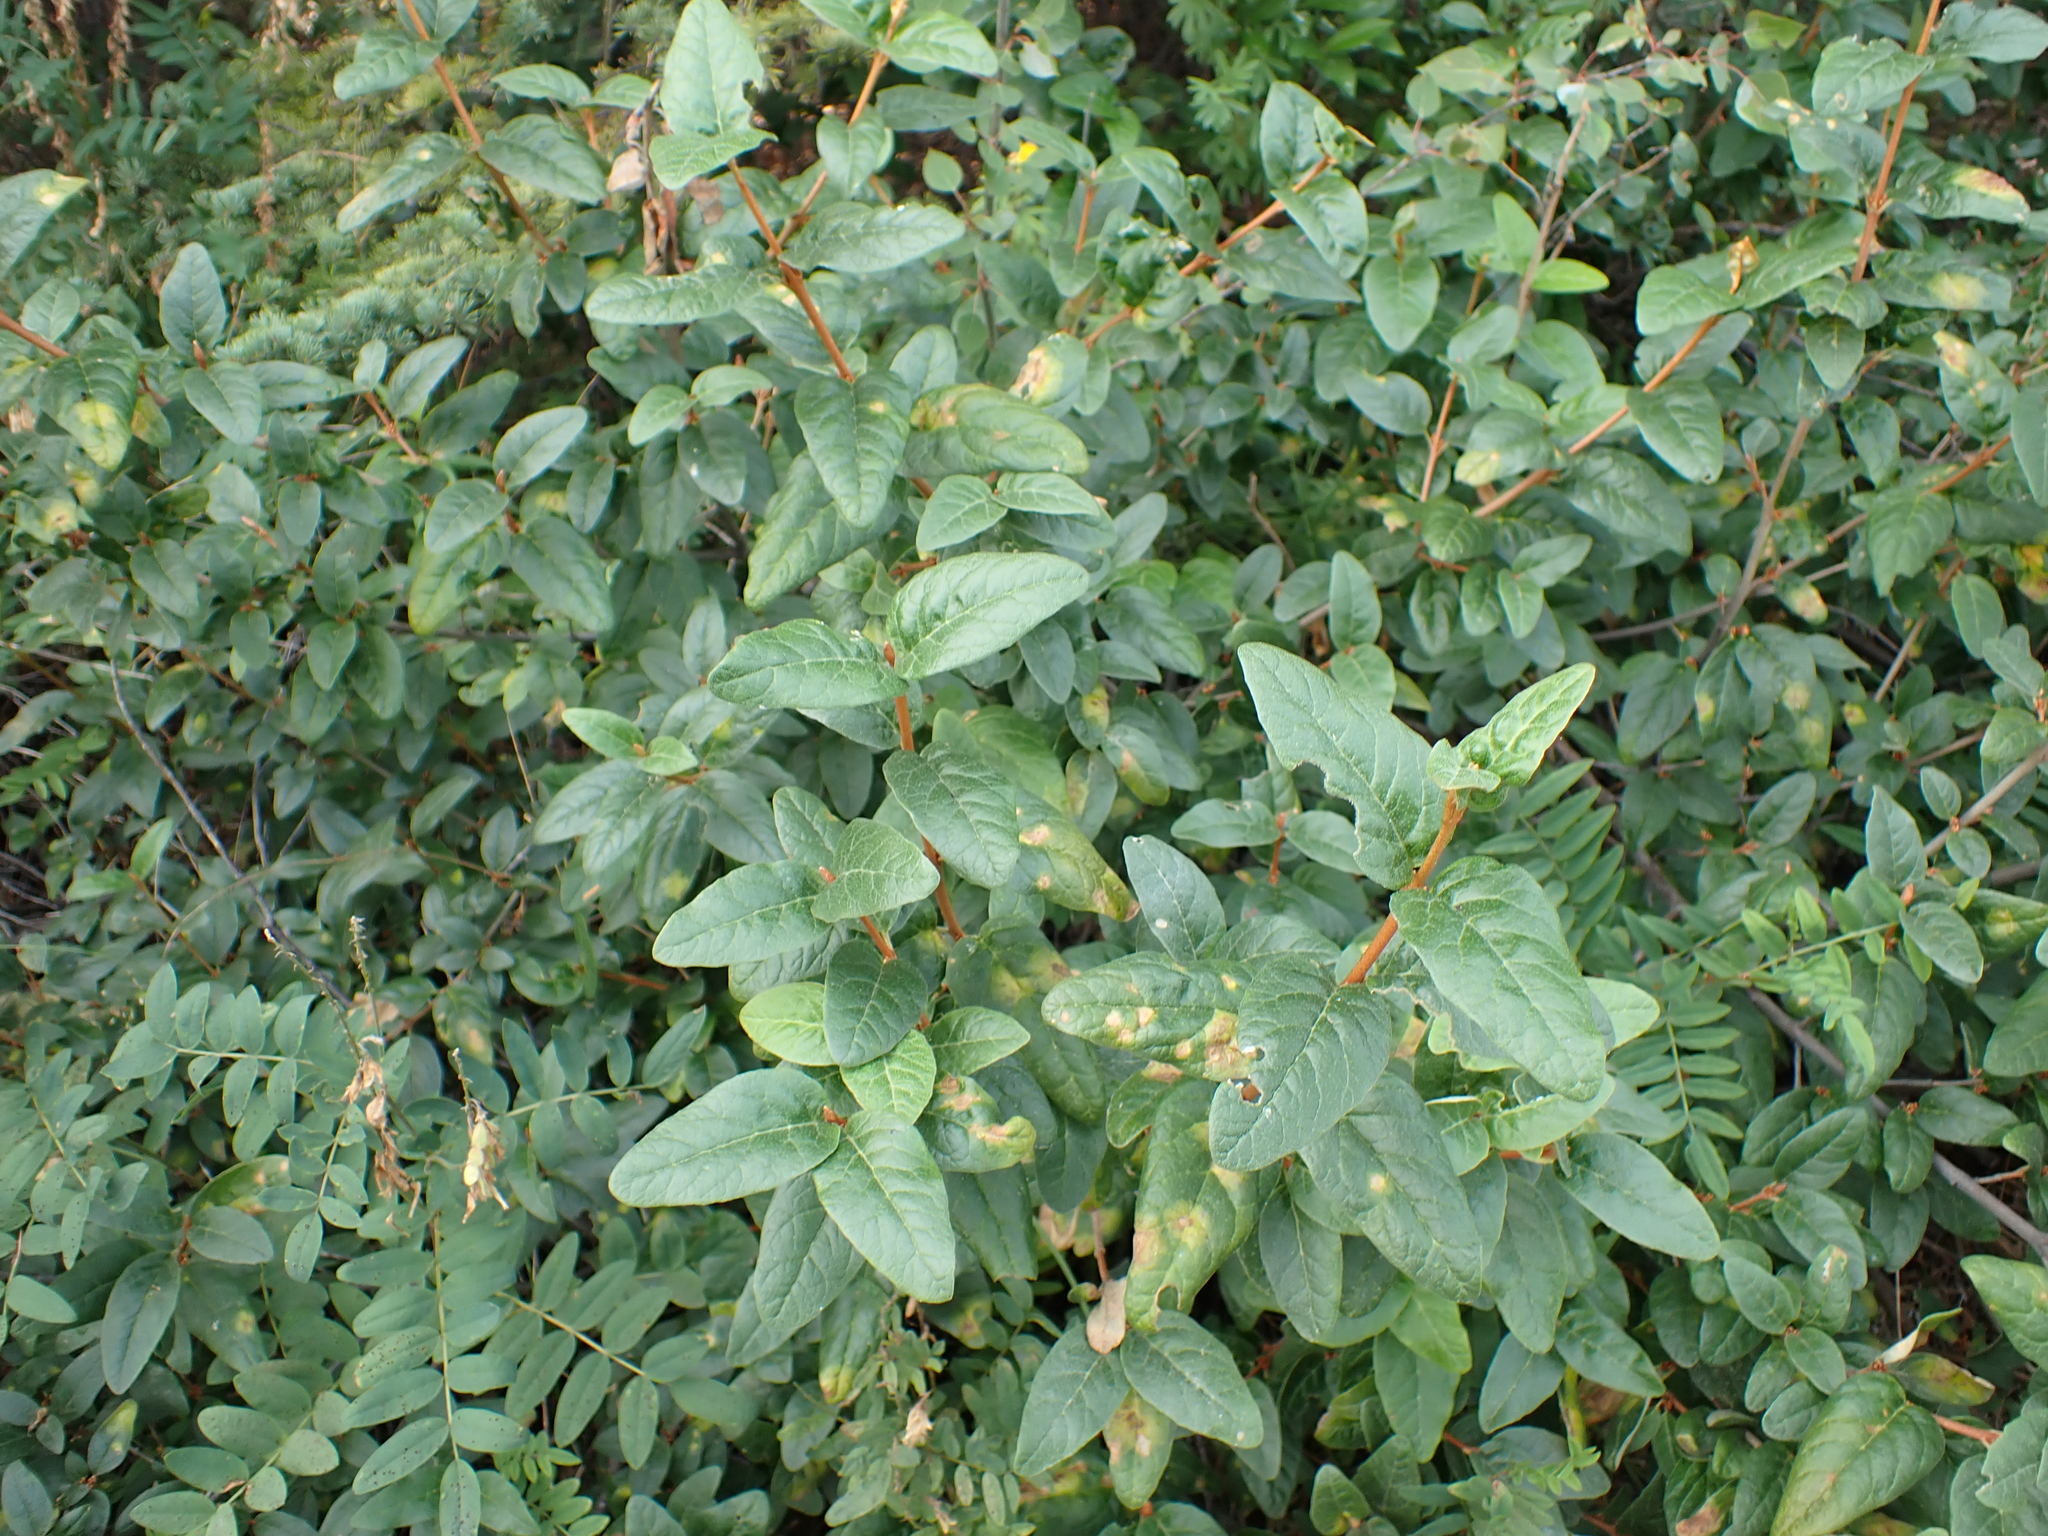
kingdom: Plantae
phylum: Tracheophyta
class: Magnoliopsida
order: Rosales
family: Elaeagnaceae
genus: Shepherdia
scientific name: Shepherdia canadensis
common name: Soapberry
